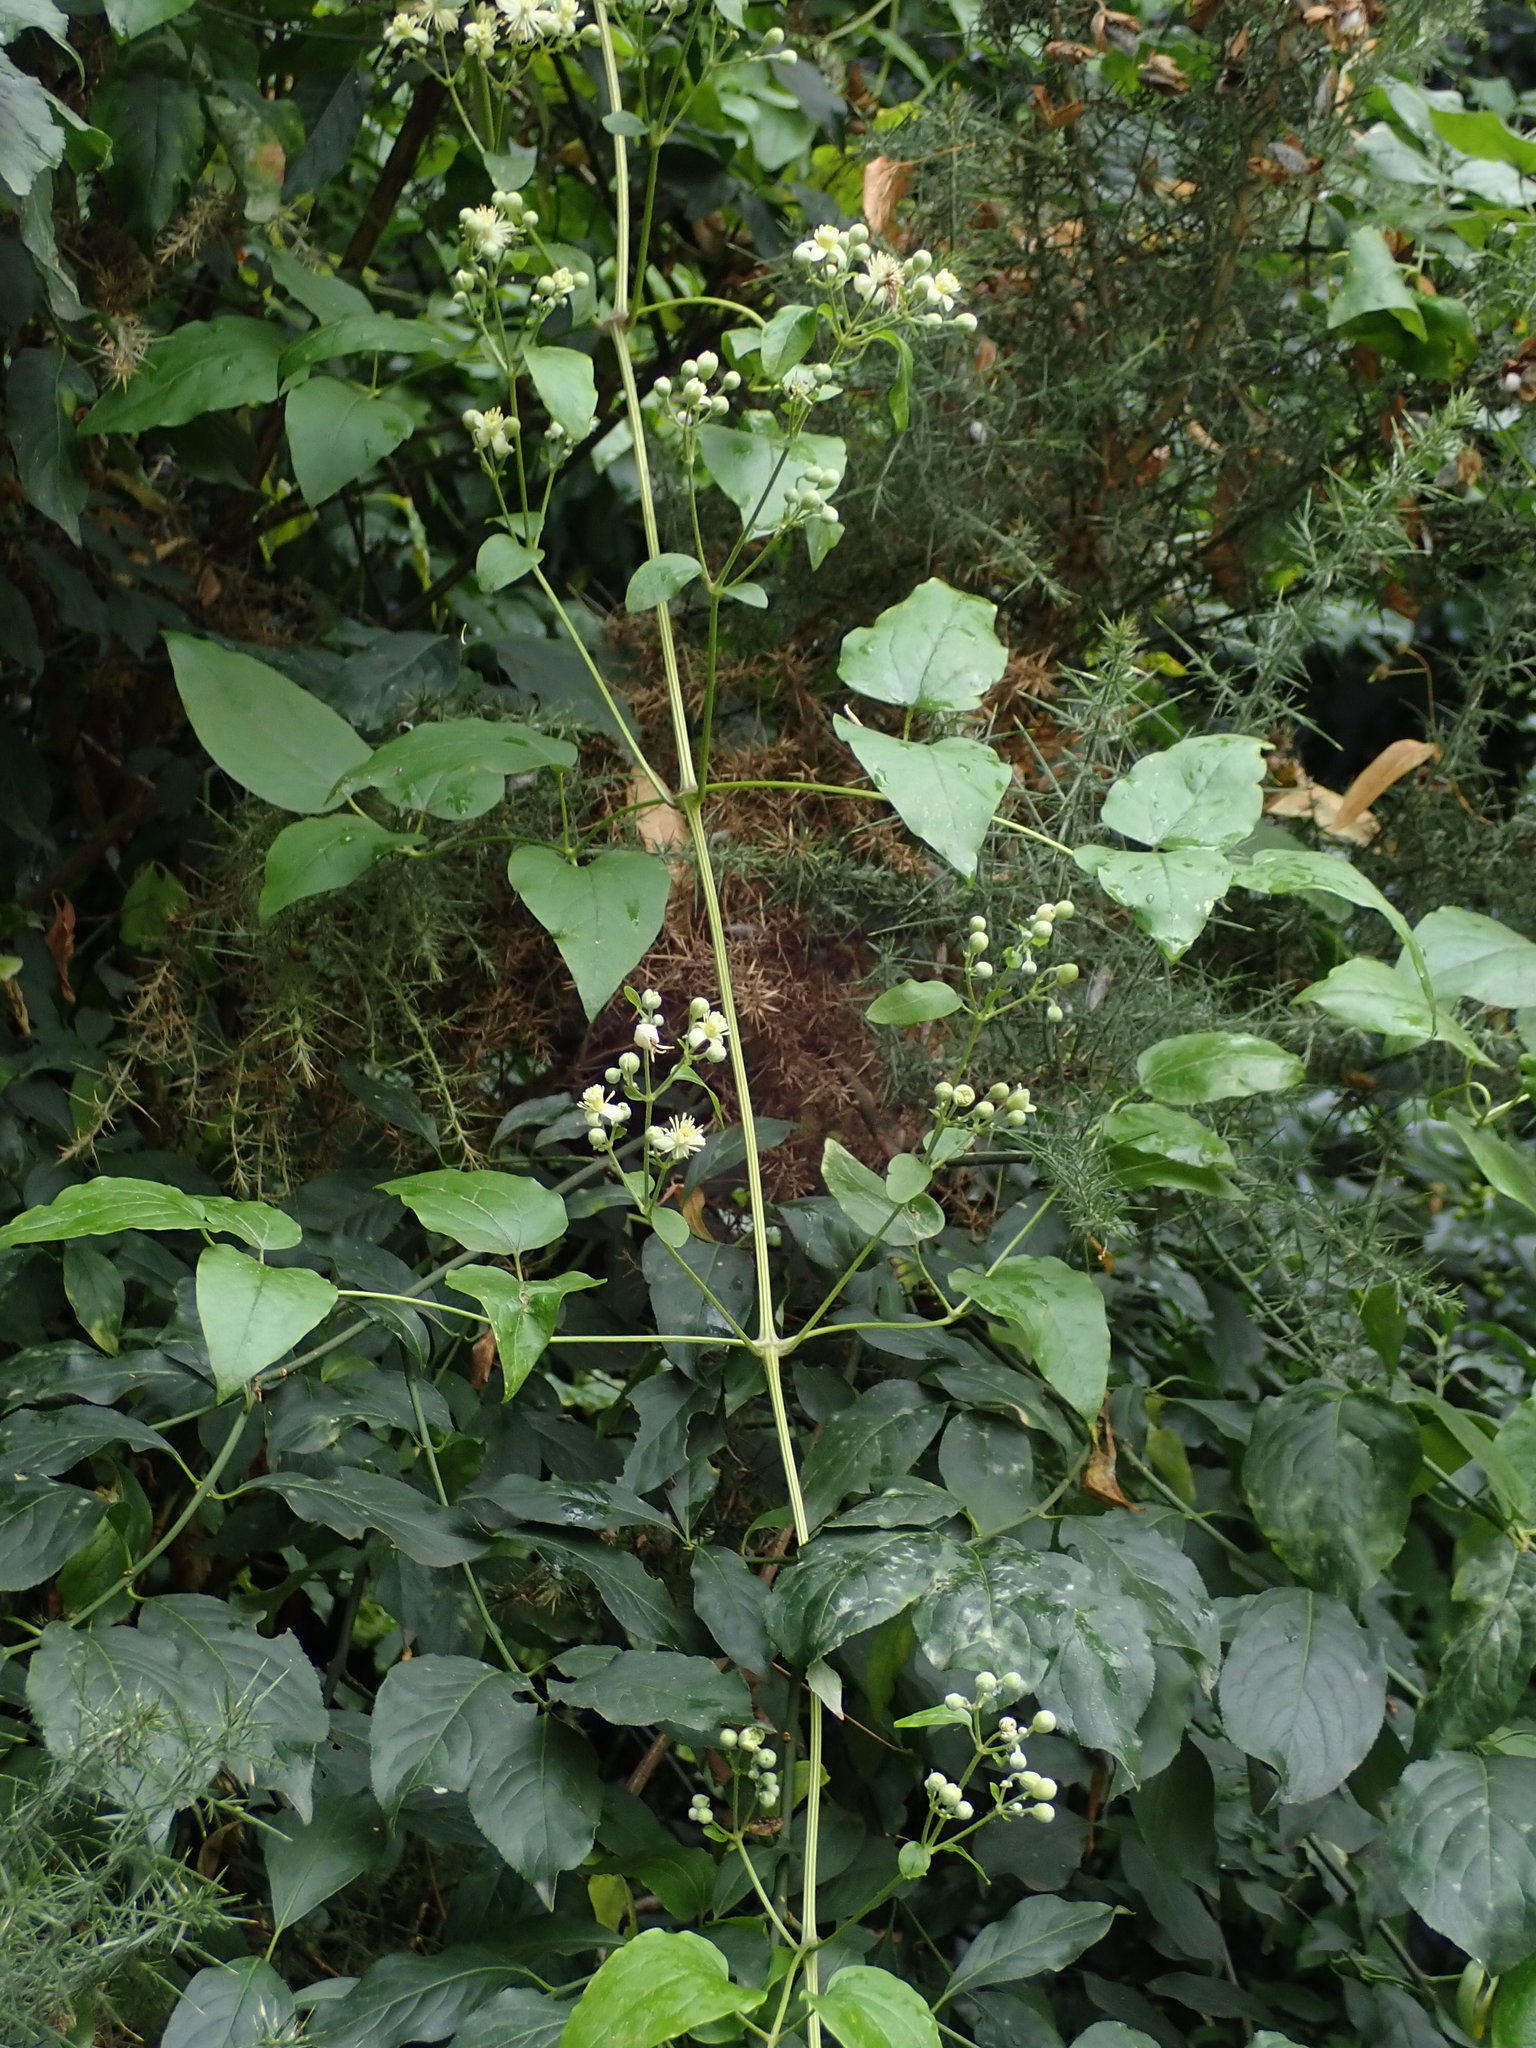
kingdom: Plantae
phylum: Tracheophyta
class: Magnoliopsida
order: Ranunculales
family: Ranunculaceae
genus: Clematis
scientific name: Clematis vitalba
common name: Evergreen clematis
